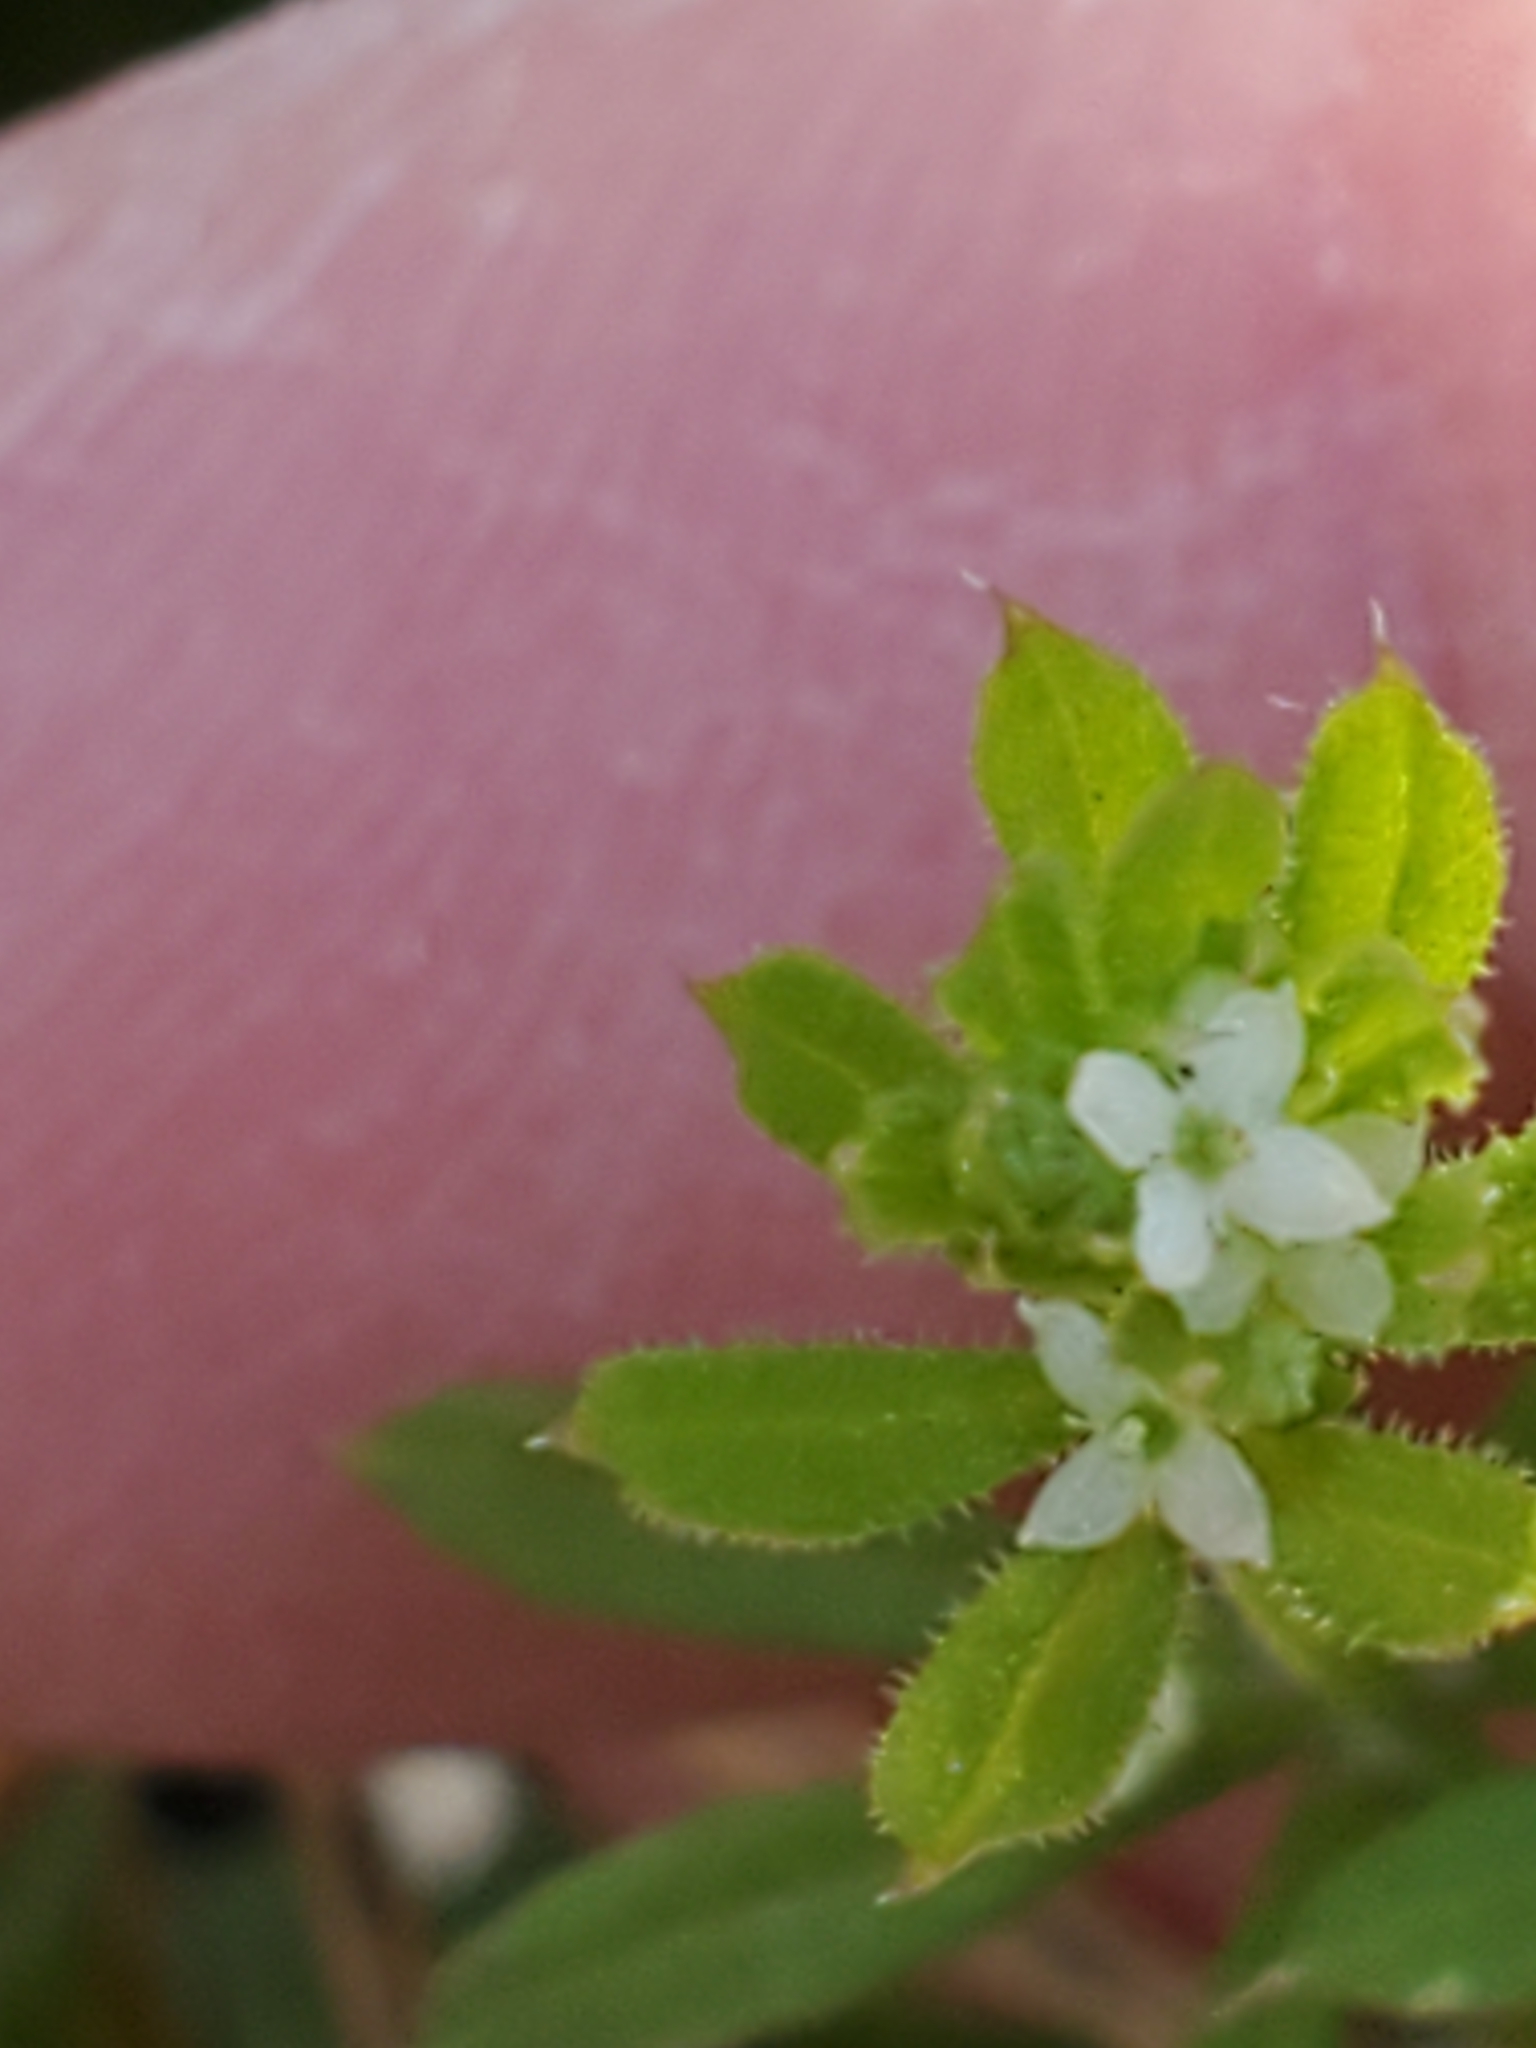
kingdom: Plantae
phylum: Tracheophyta
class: Magnoliopsida
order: Gentianales
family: Rubiaceae
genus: Galium
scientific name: Galium aparine
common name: Cleavers
